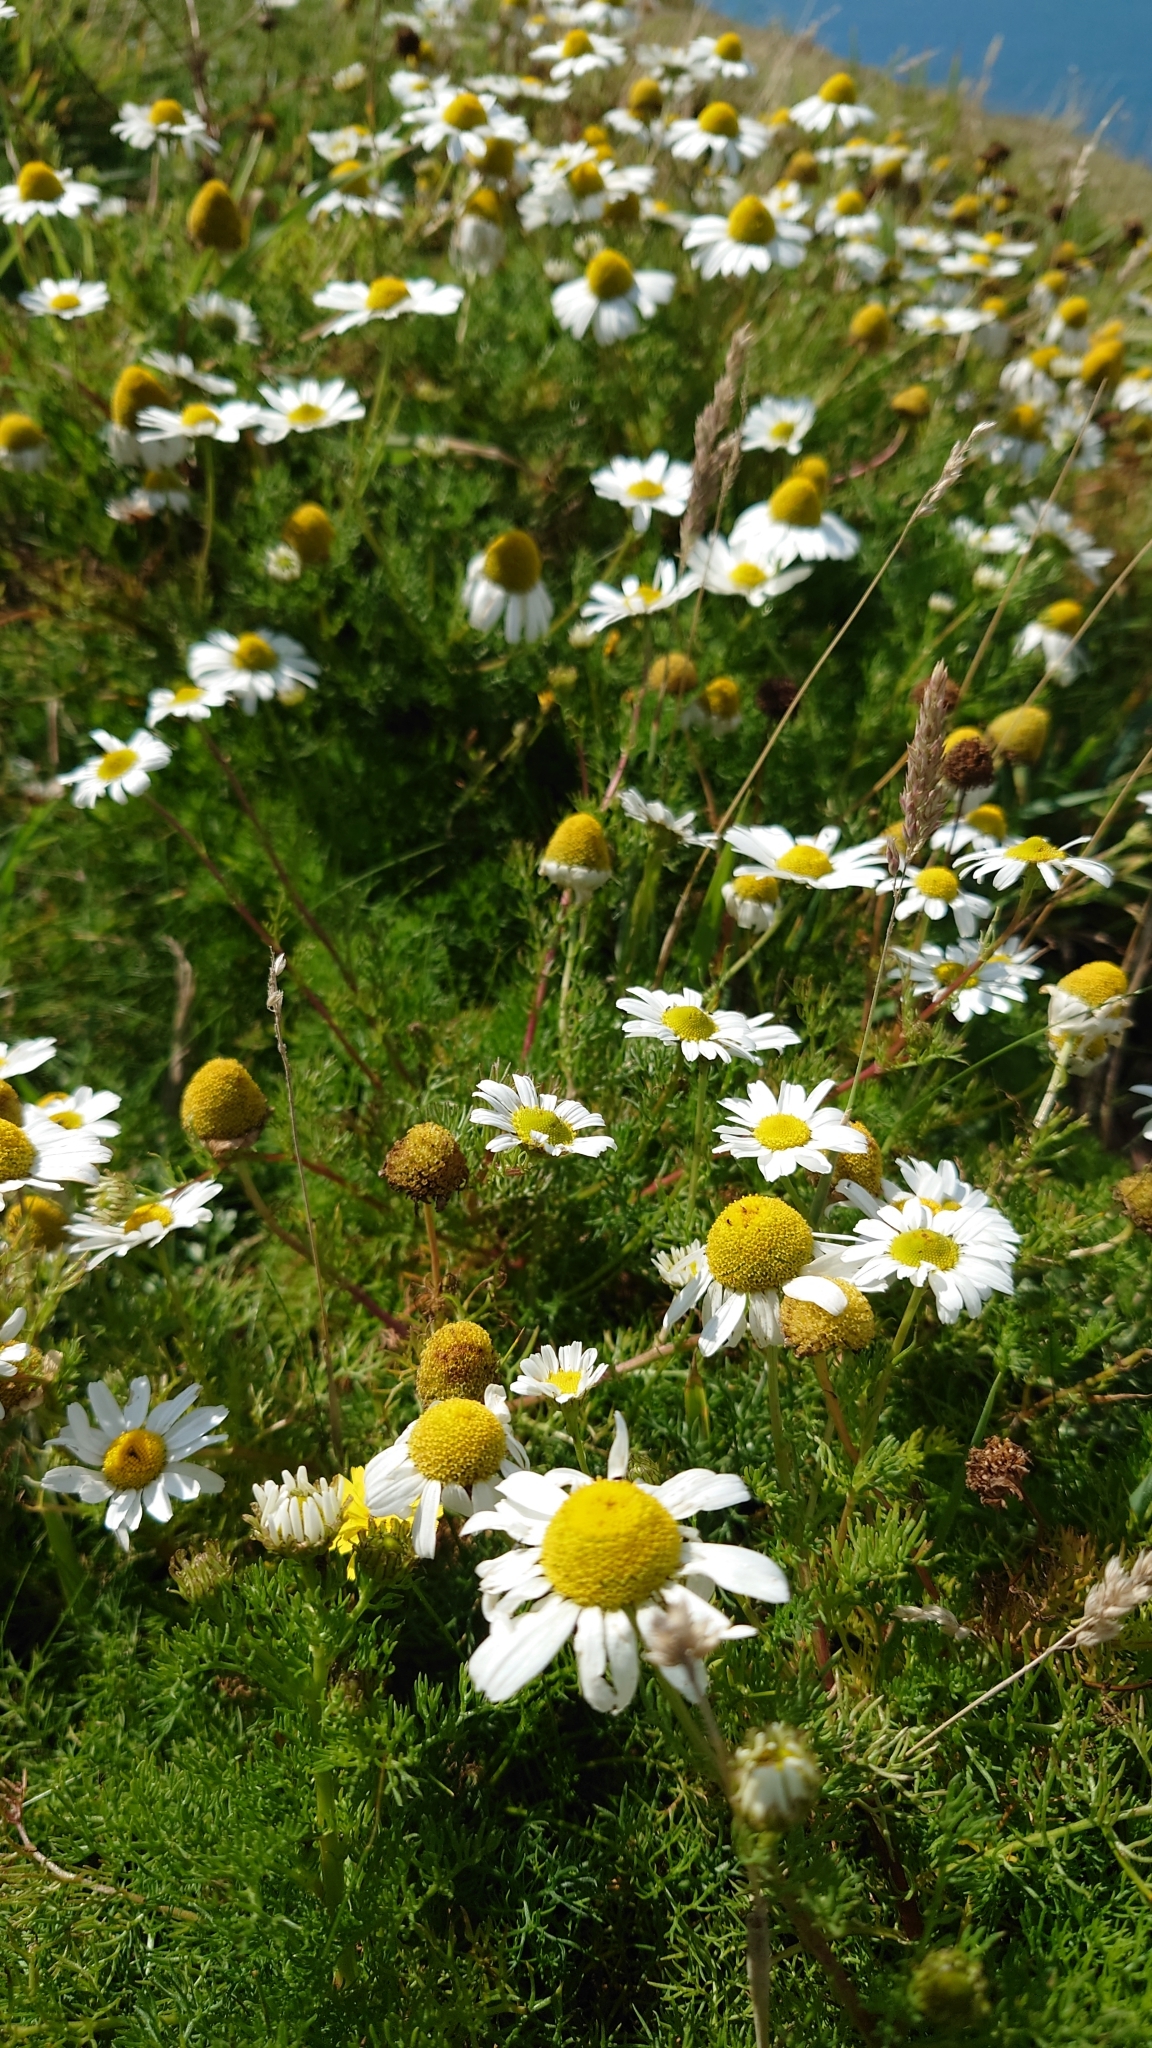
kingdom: Plantae
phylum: Tracheophyta
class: Magnoliopsida
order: Asterales
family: Asteraceae
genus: Tripleurospermum
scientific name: Tripleurospermum maritimum
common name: Sea mayweed
